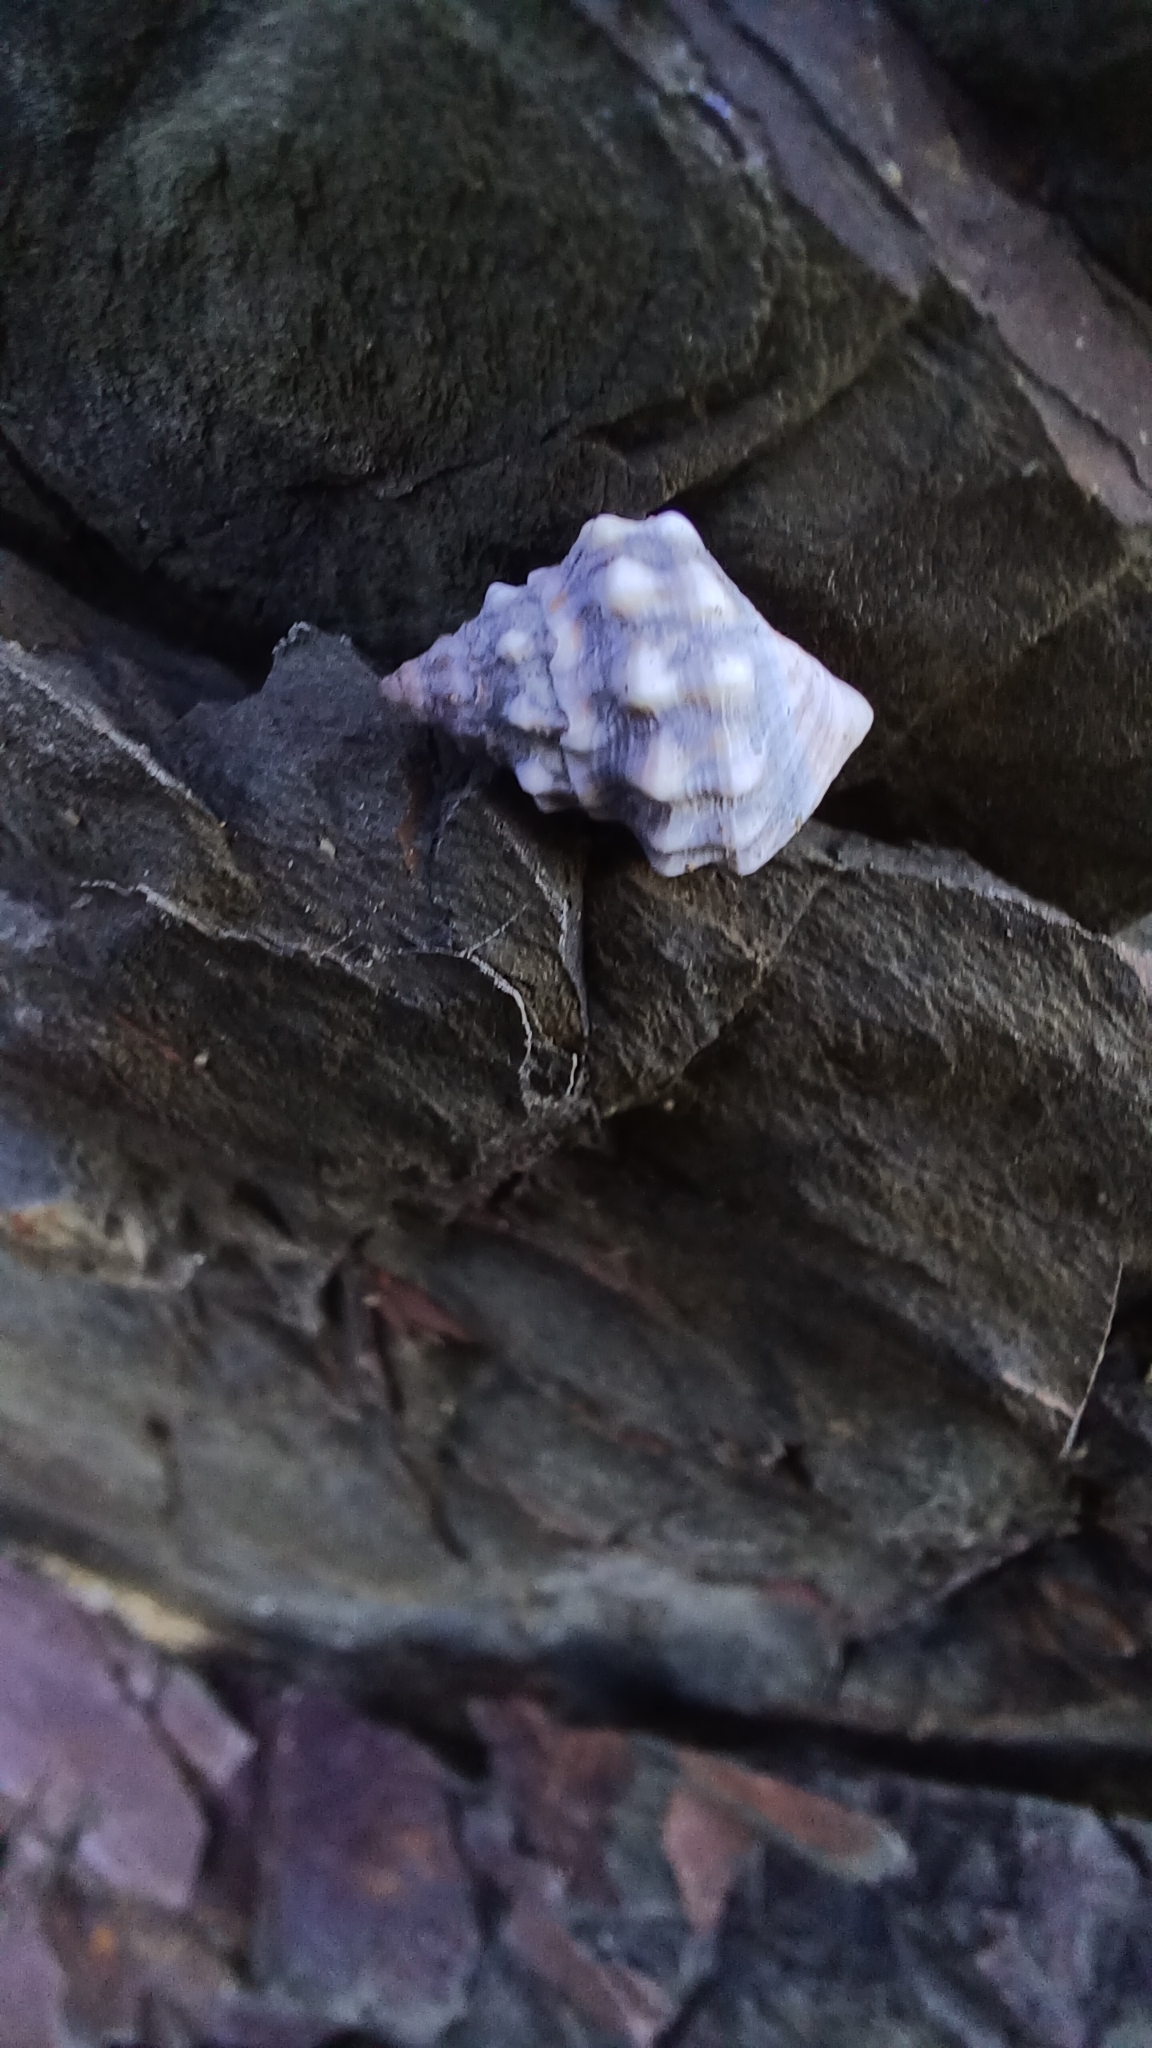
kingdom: Animalia
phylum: Mollusca
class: Gastropoda
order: Littorinimorpha
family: Littorinidae
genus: Nodilittorina
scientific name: Nodilittorina pyramidalis
